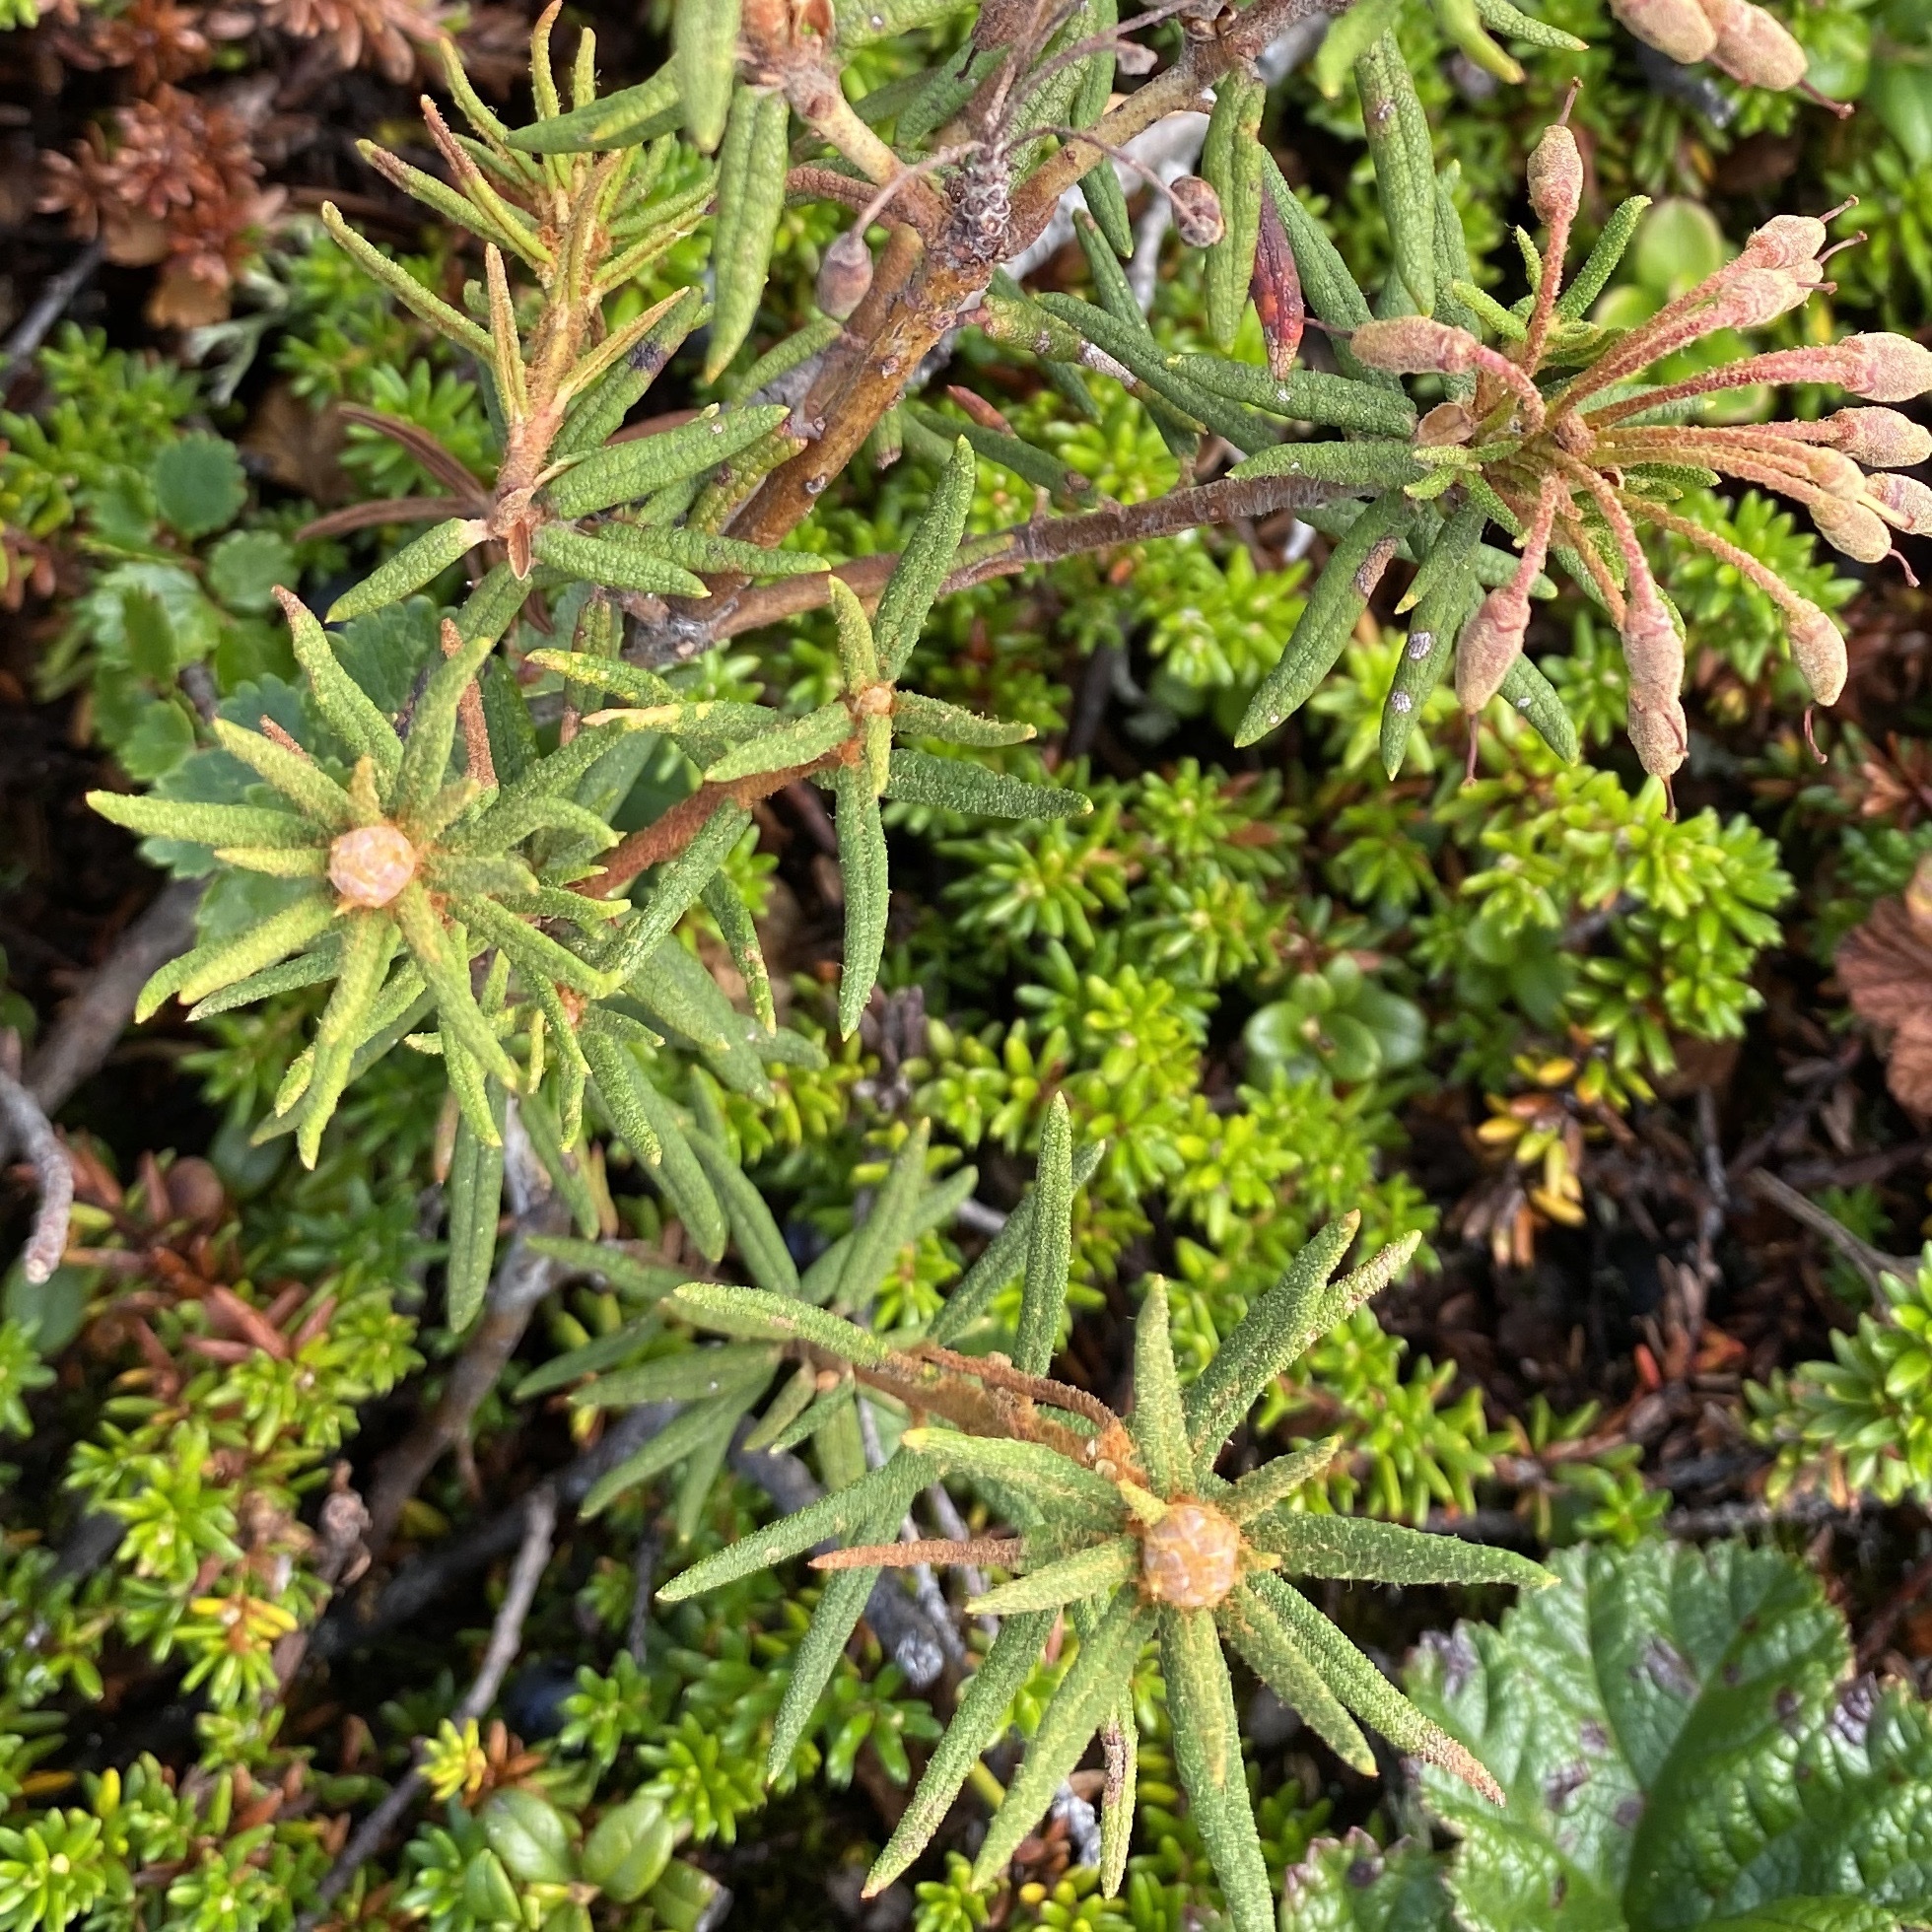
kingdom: Plantae
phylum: Tracheophyta
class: Magnoliopsida
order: Ericales
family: Ericaceae
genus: Rhododendron
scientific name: Rhododendron tomentosum
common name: Marsh labrador tea
